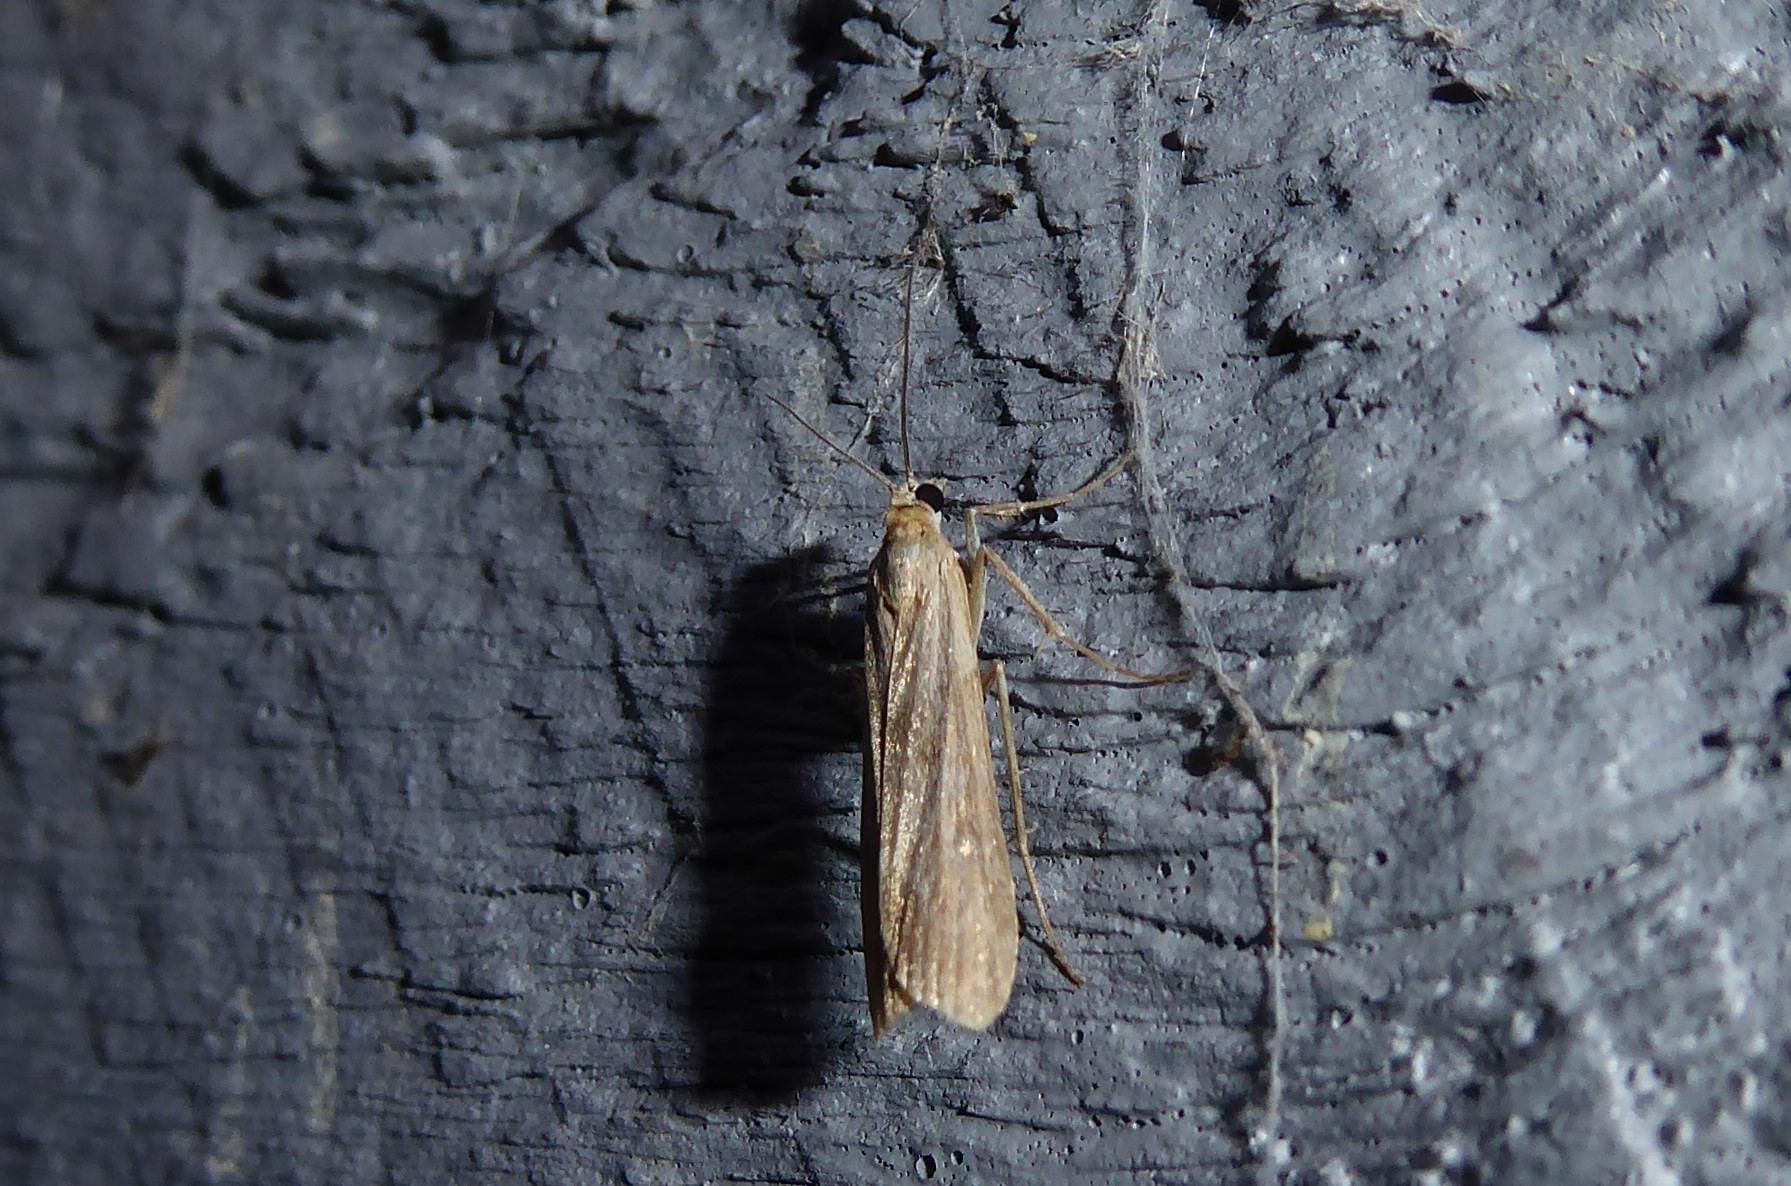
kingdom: Animalia
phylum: Arthropoda
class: Insecta
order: Lepidoptera
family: Crambidae
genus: Eudonia
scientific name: Eudonia leptalea
